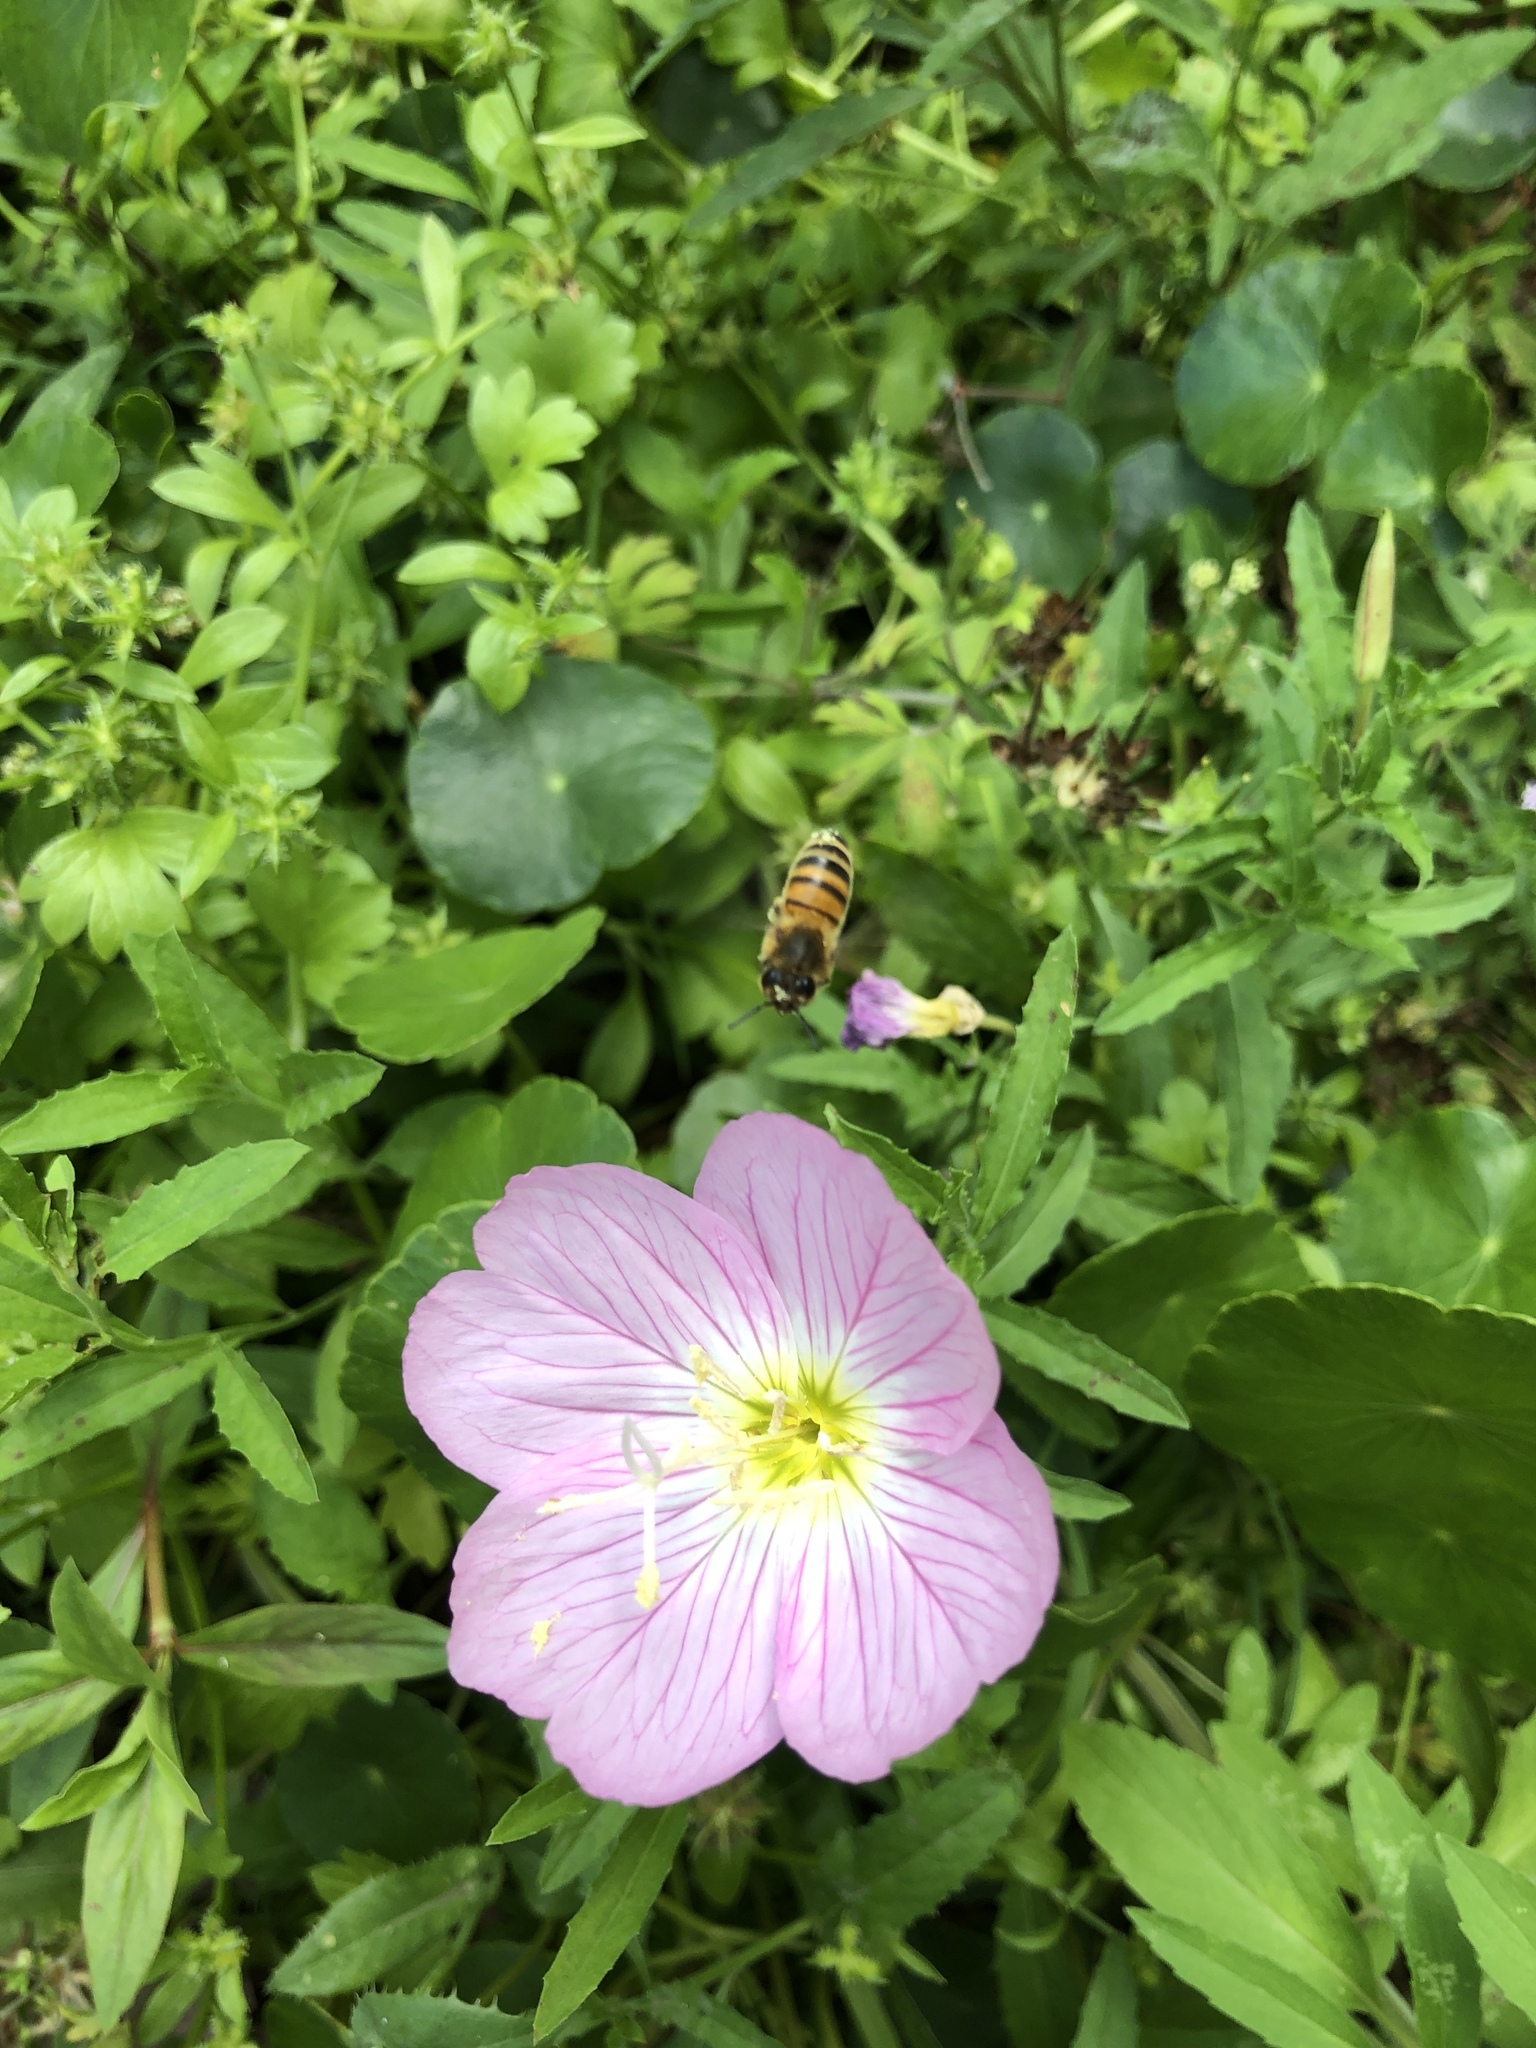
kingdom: Animalia
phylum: Arthropoda
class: Insecta
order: Hymenoptera
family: Apidae
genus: Apis
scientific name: Apis mellifera
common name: Honey bee
